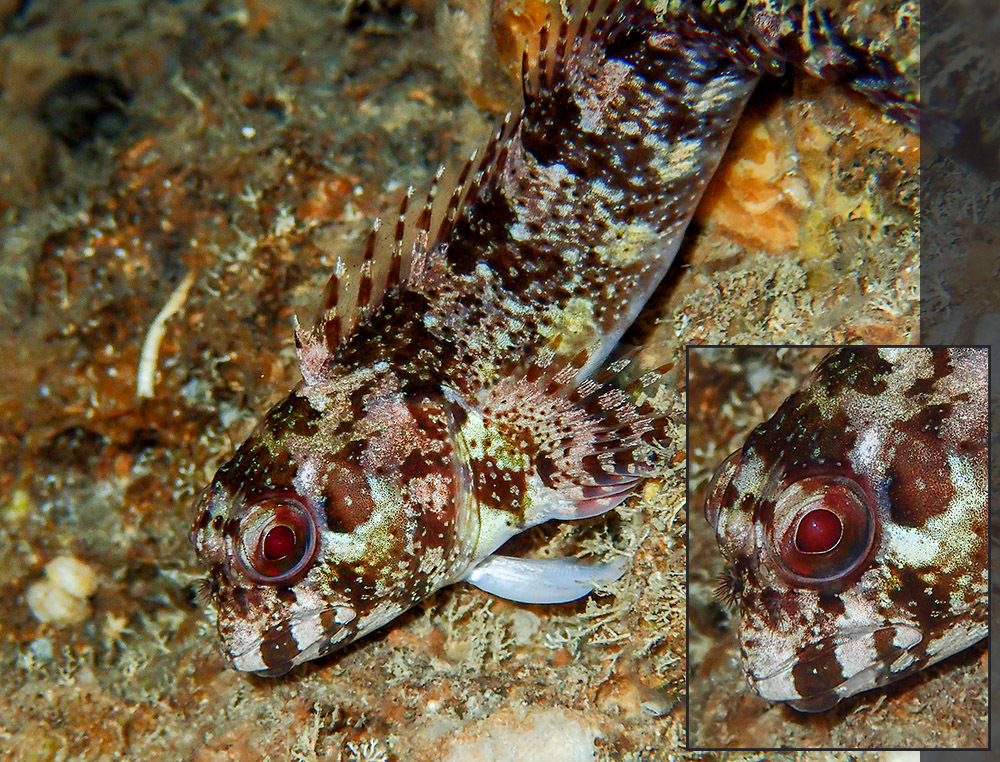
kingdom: Animalia
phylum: Chordata
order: Perciformes
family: Blenniidae
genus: Lipophrys
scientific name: Lipophrys trigloides
